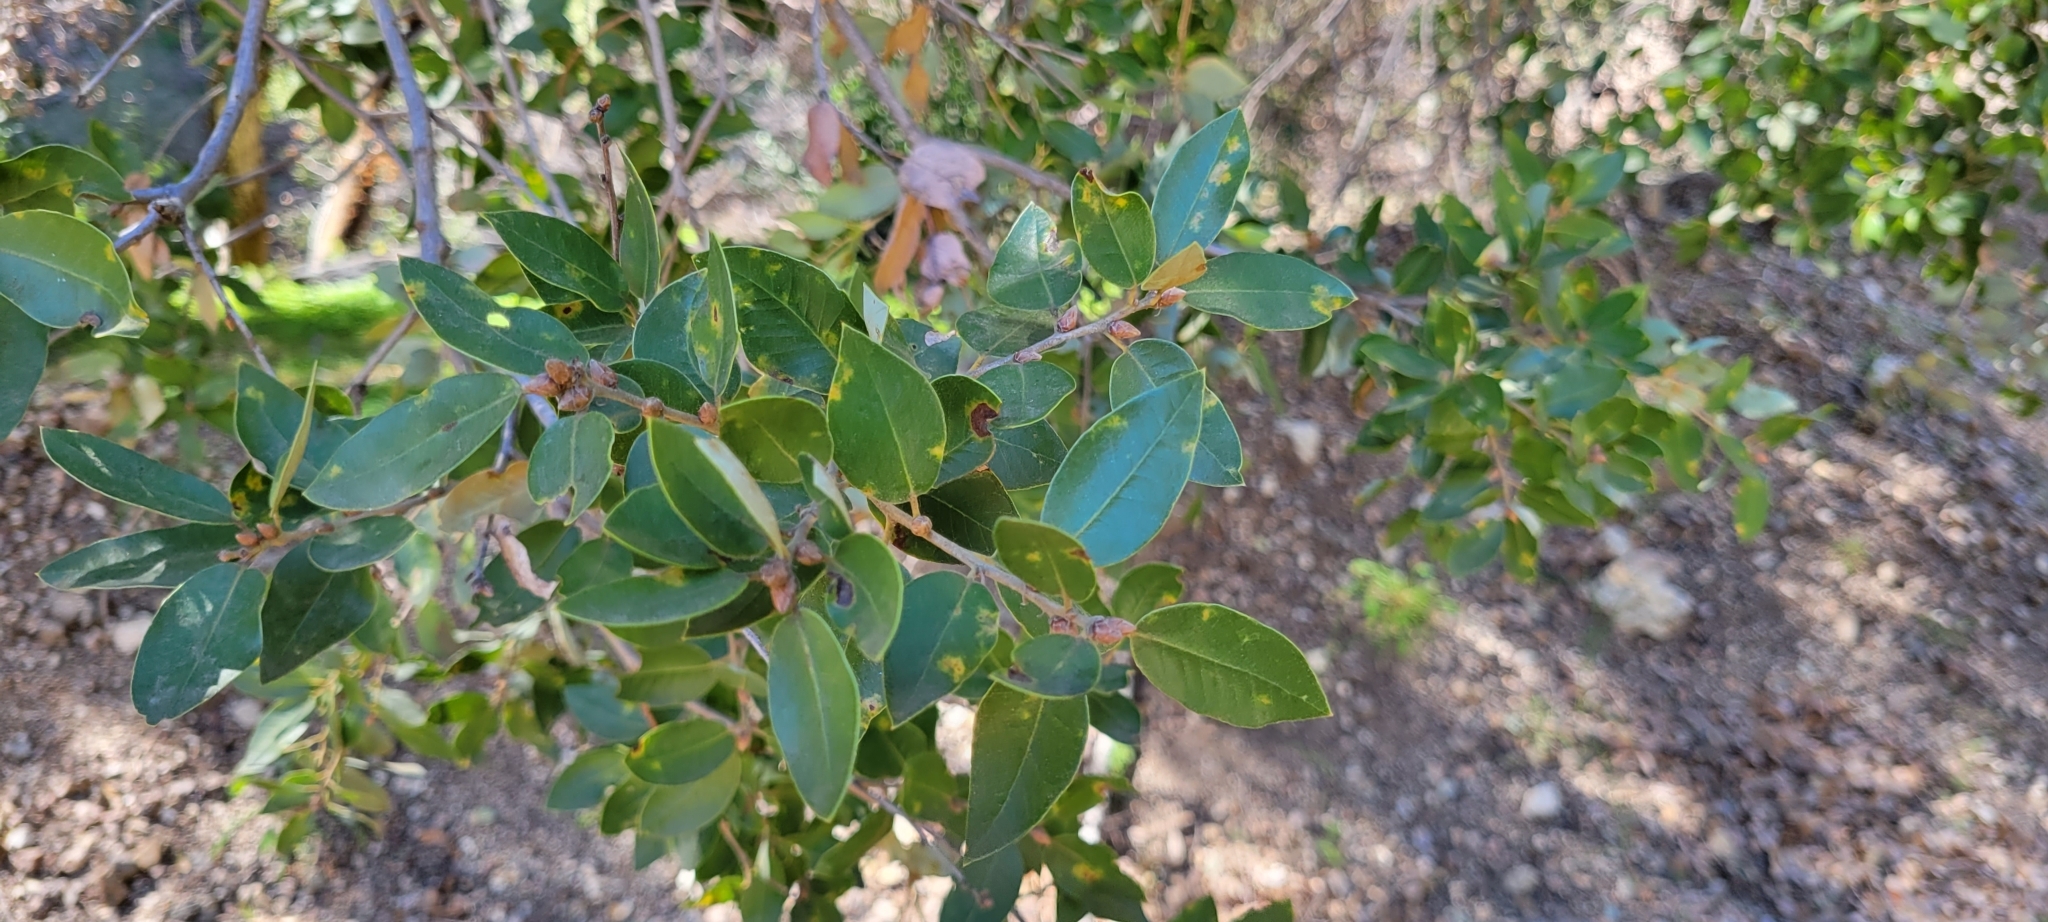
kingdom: Plantae
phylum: Tracheophyta
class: Magnoliopsida
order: Fagales
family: Fagaceae
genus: Quercus
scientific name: Quercus chrysolepis
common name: Canyon live oak
